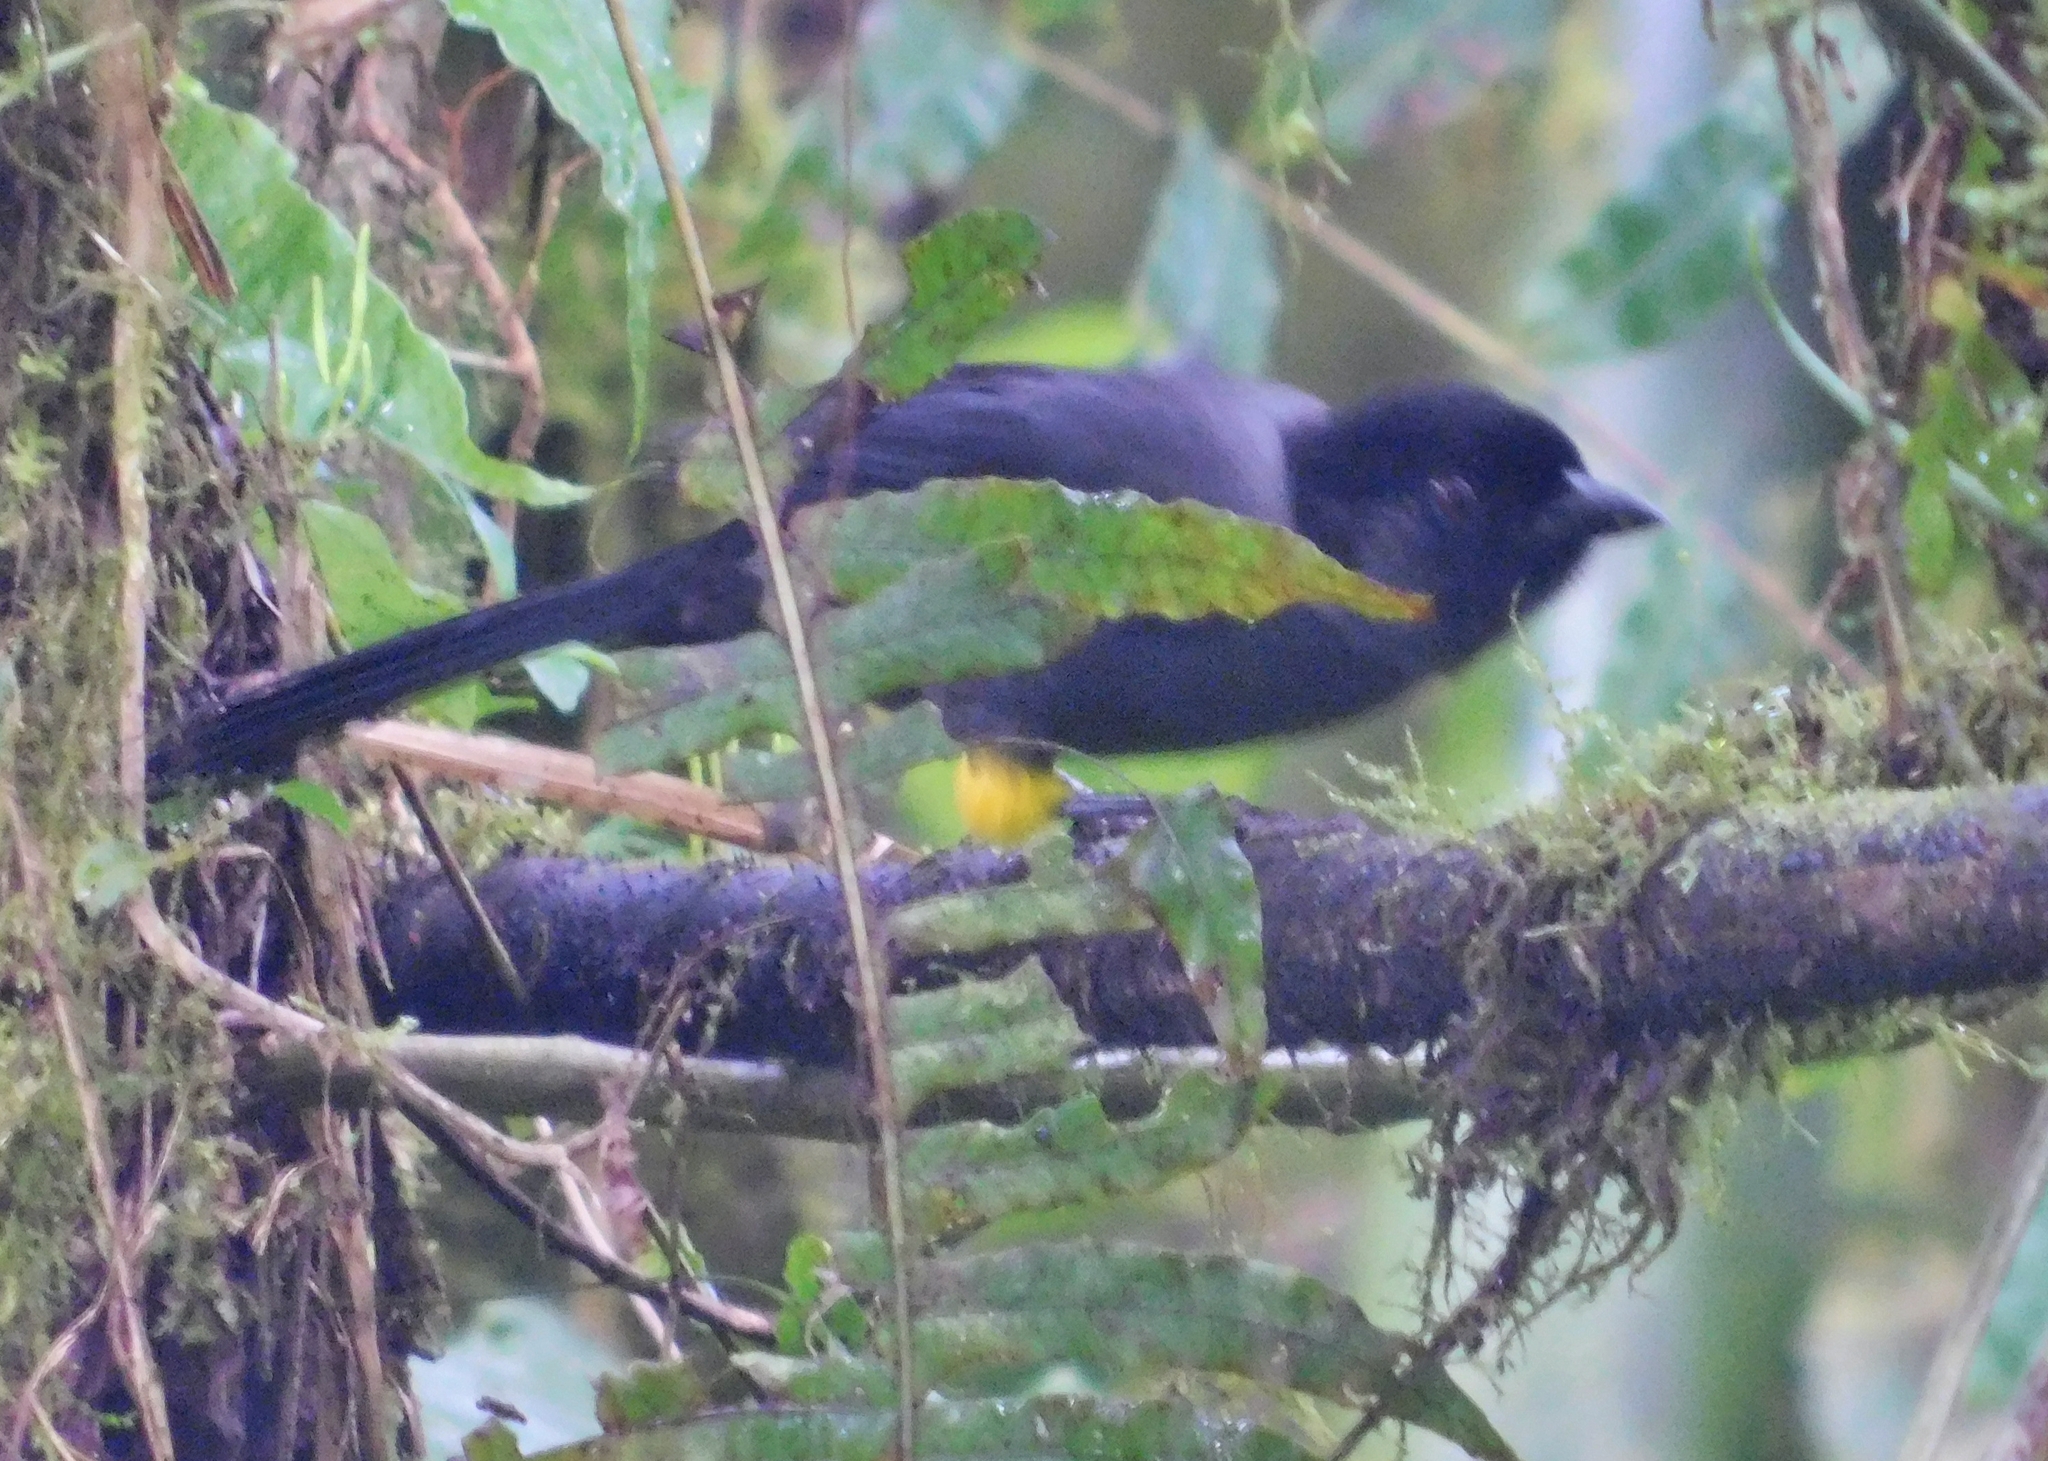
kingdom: Animalia
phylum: Chordata
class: Aves
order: Passeriformes
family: Passerellidae
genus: Atlapetes
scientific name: Atlapetes tibialis
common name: Yellow-thighed brushfinch
